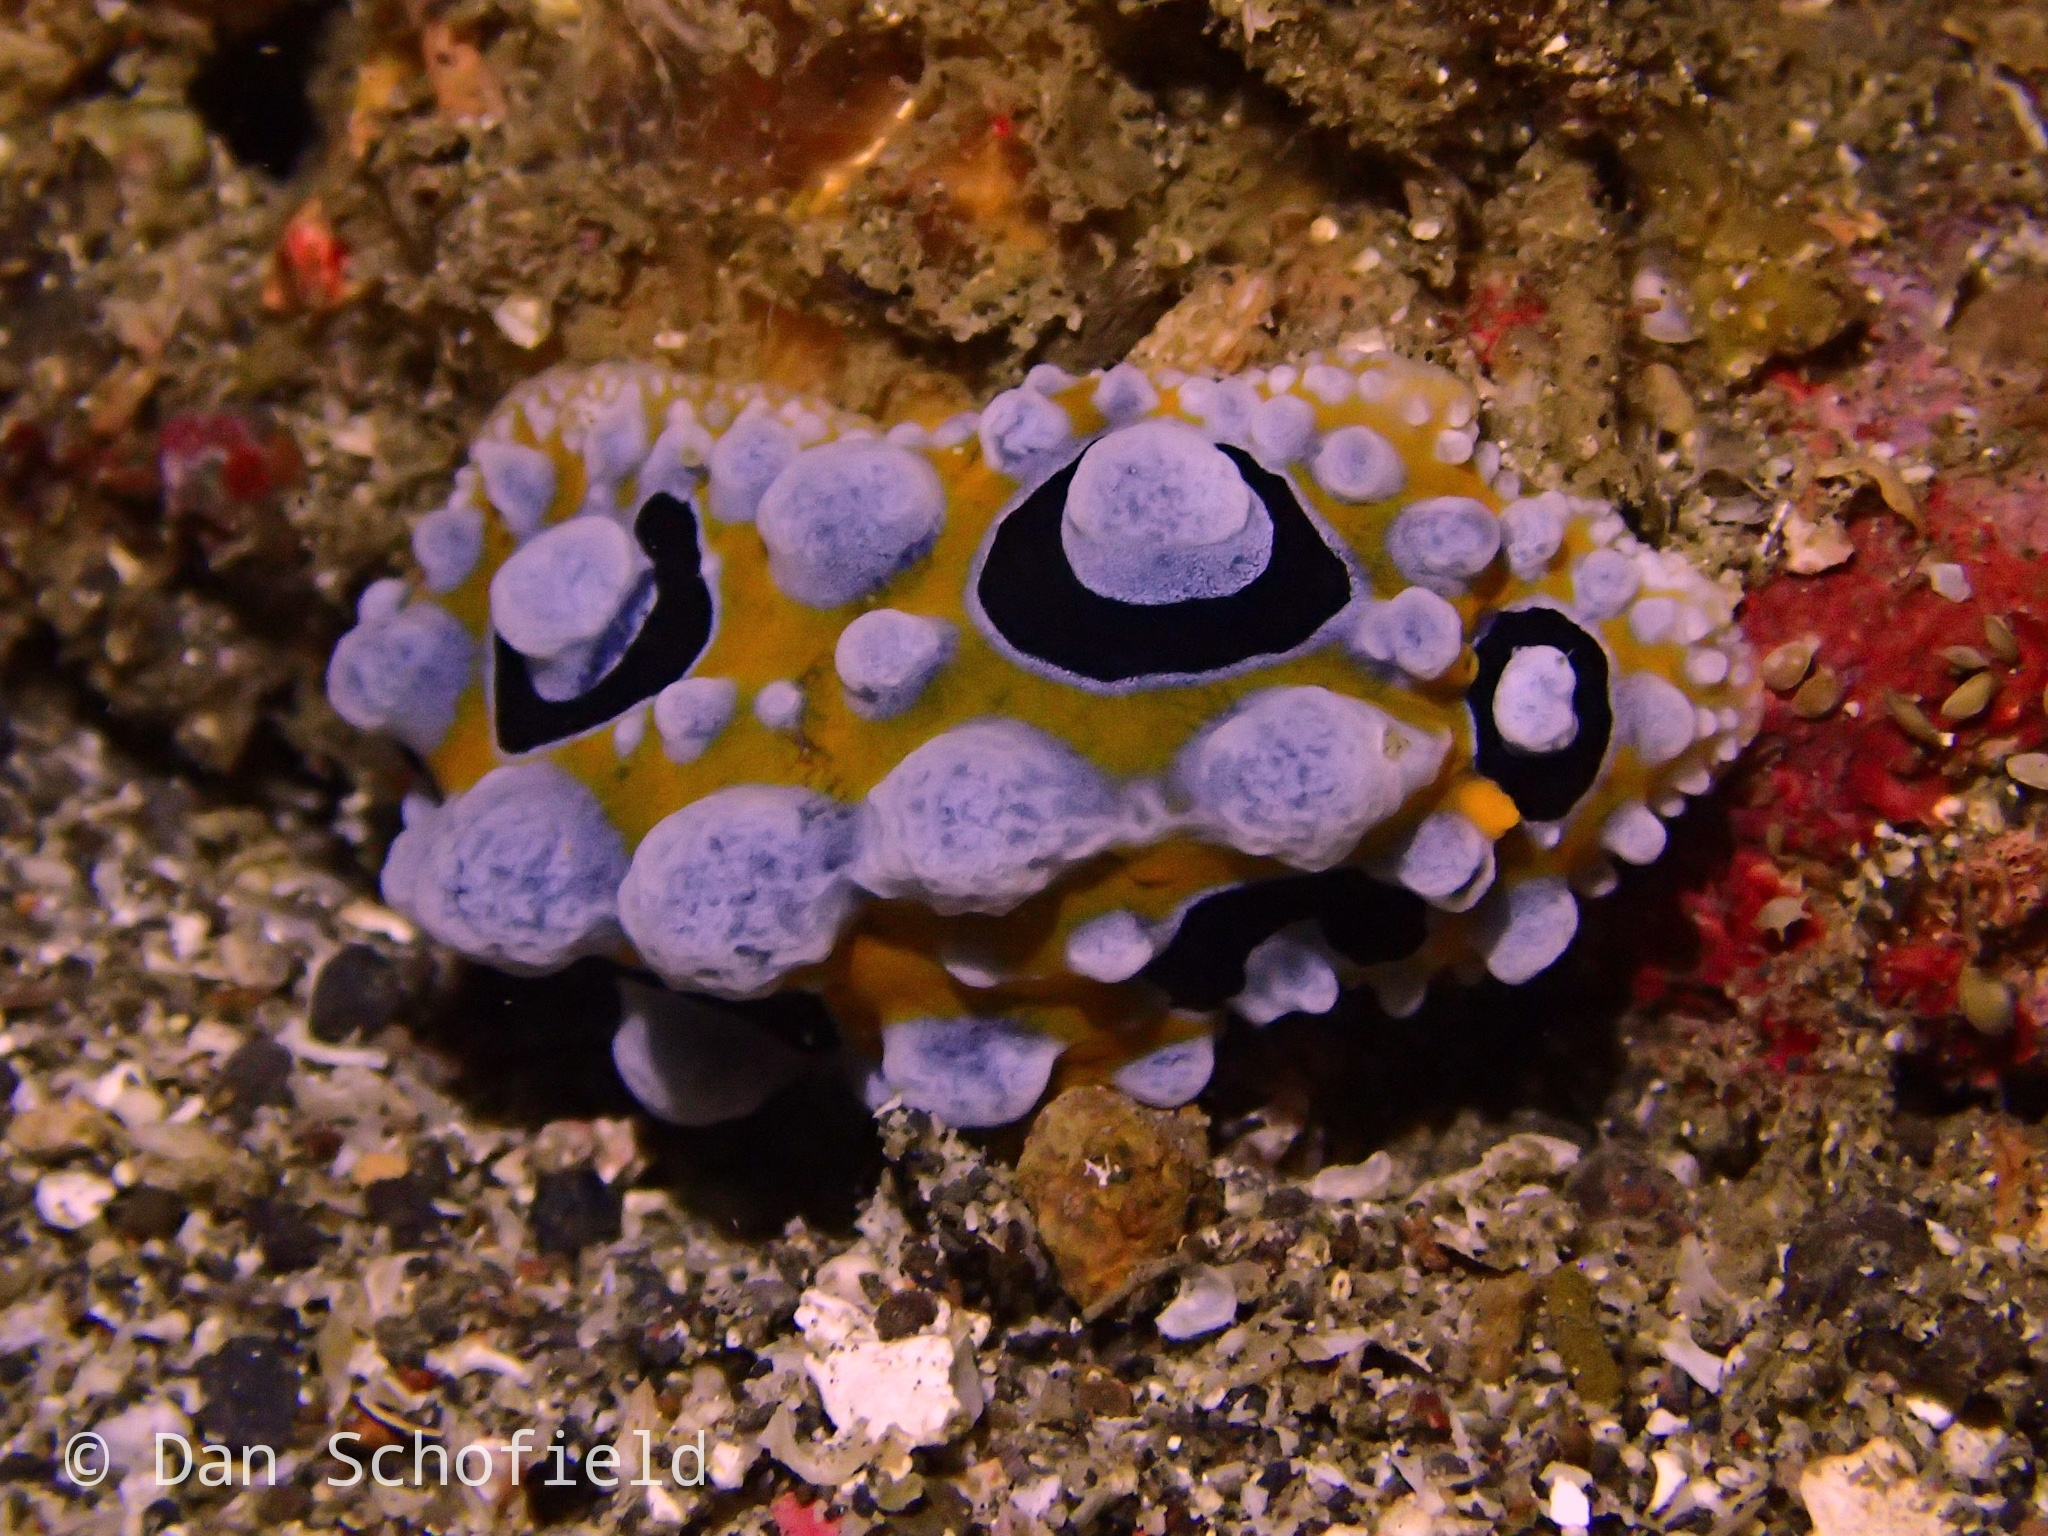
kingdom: Animalia
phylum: Mollusca
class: Gastropoda
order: Nudibranchia
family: Phyllidiidae
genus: Phyllidia
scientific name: Phyllidia ocellata
